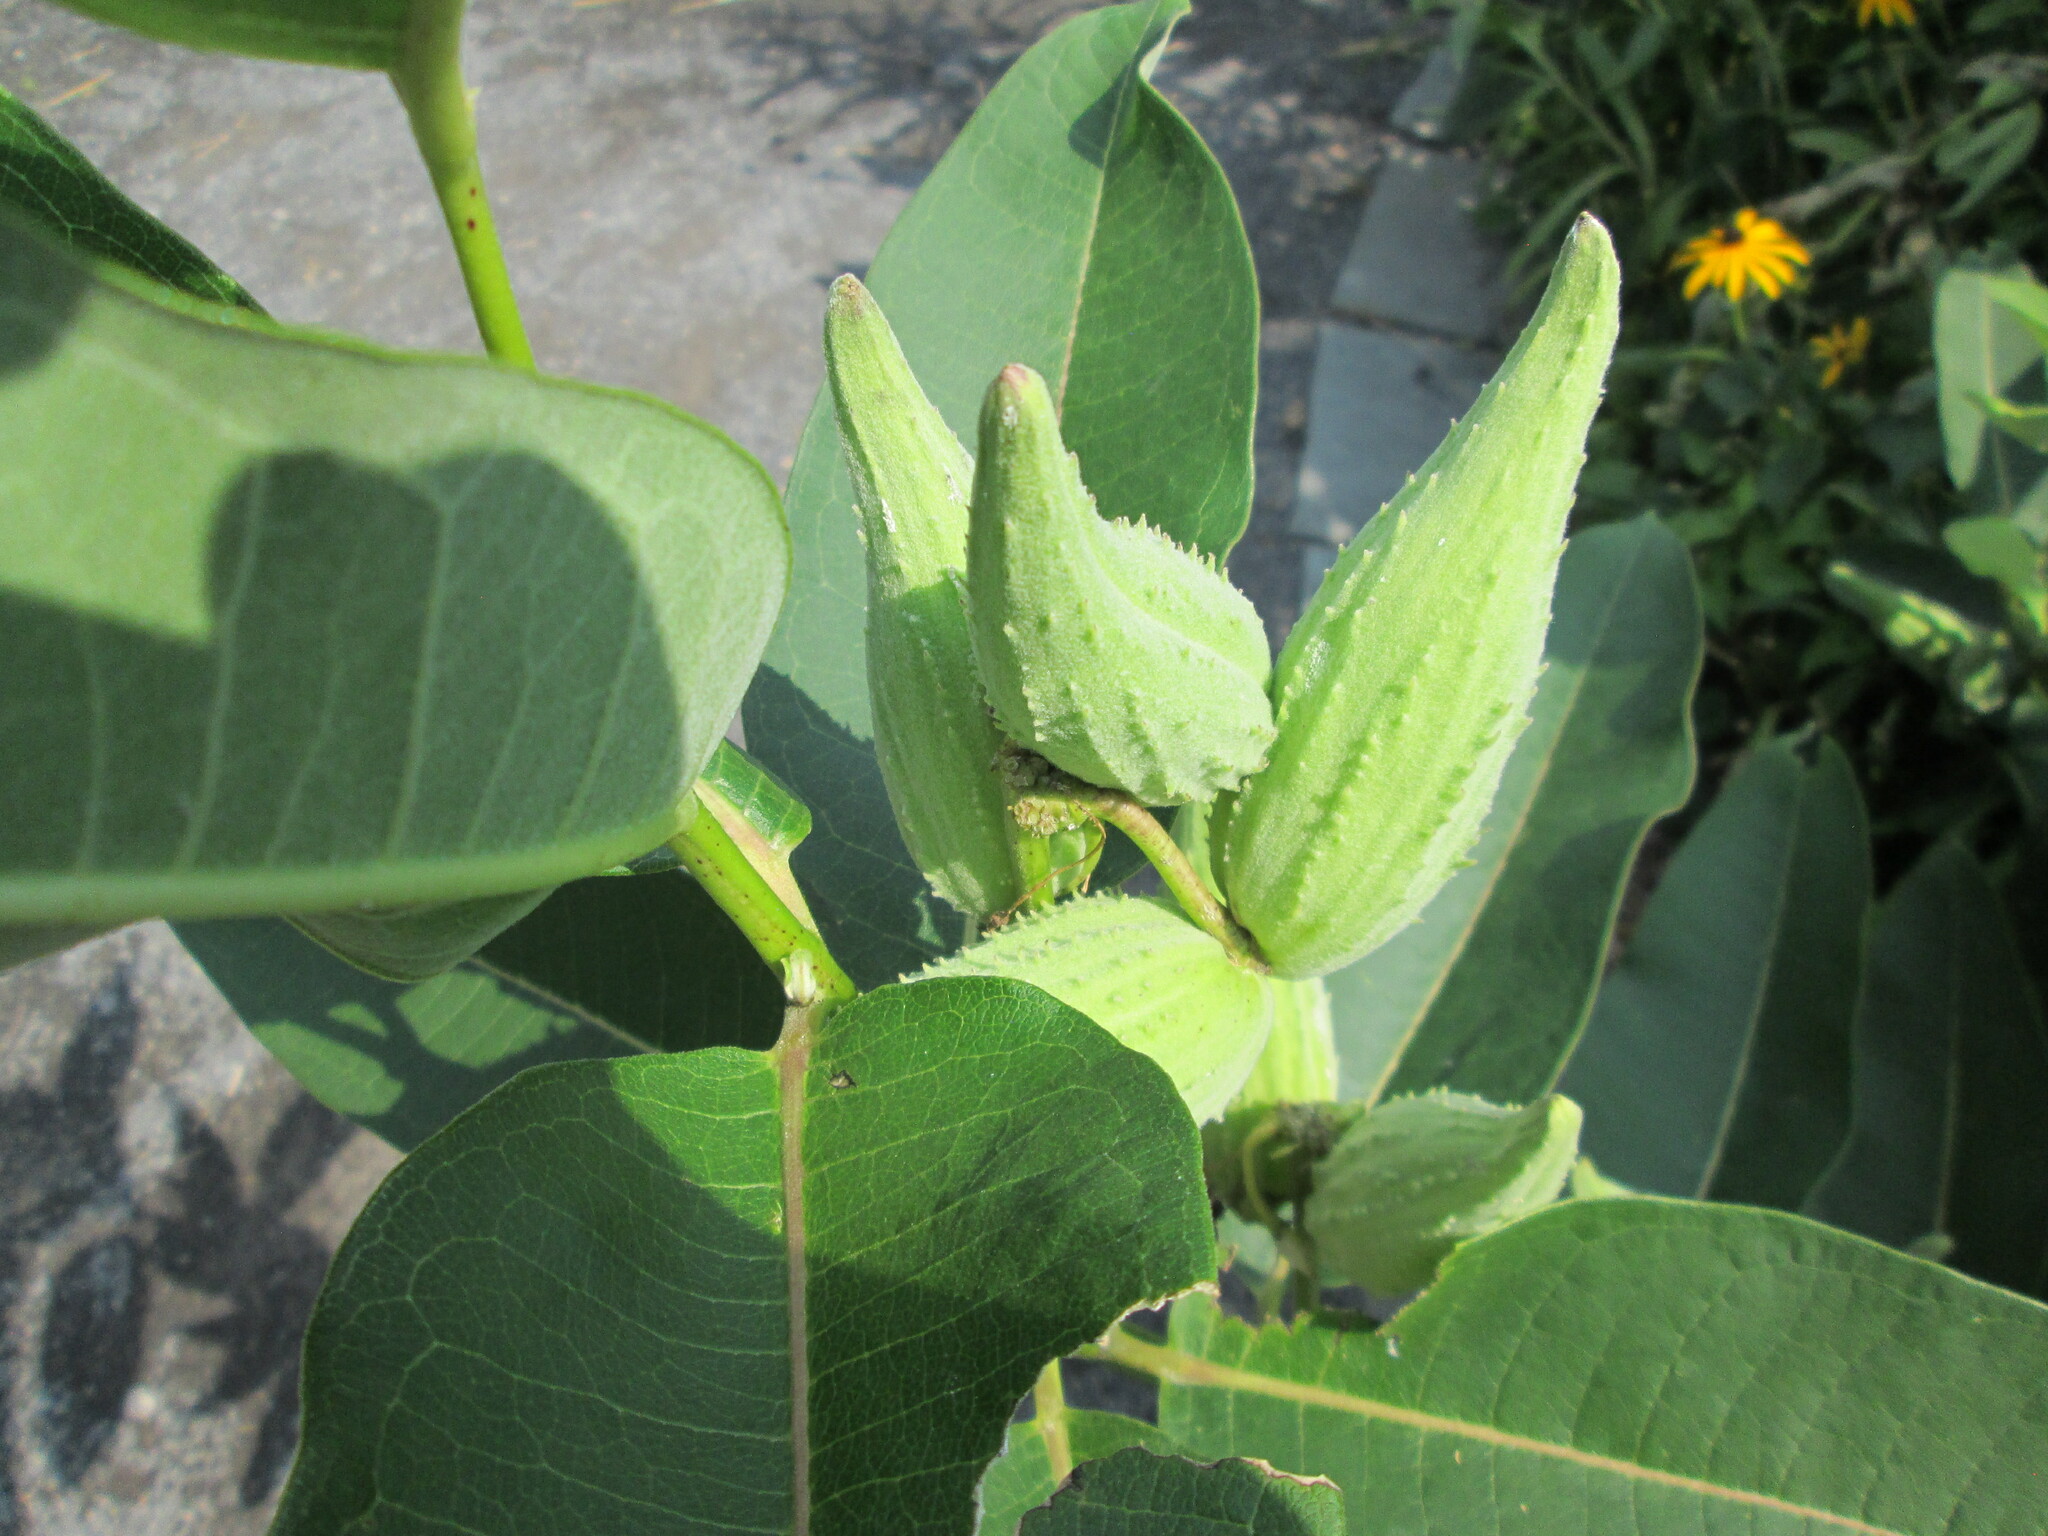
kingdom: Plantae
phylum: Tracheophyta
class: Magnoliopsida
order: Gentianales
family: Apocynaceae
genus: Asclepias
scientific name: Asclepias syriaca
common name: Common milkweed
